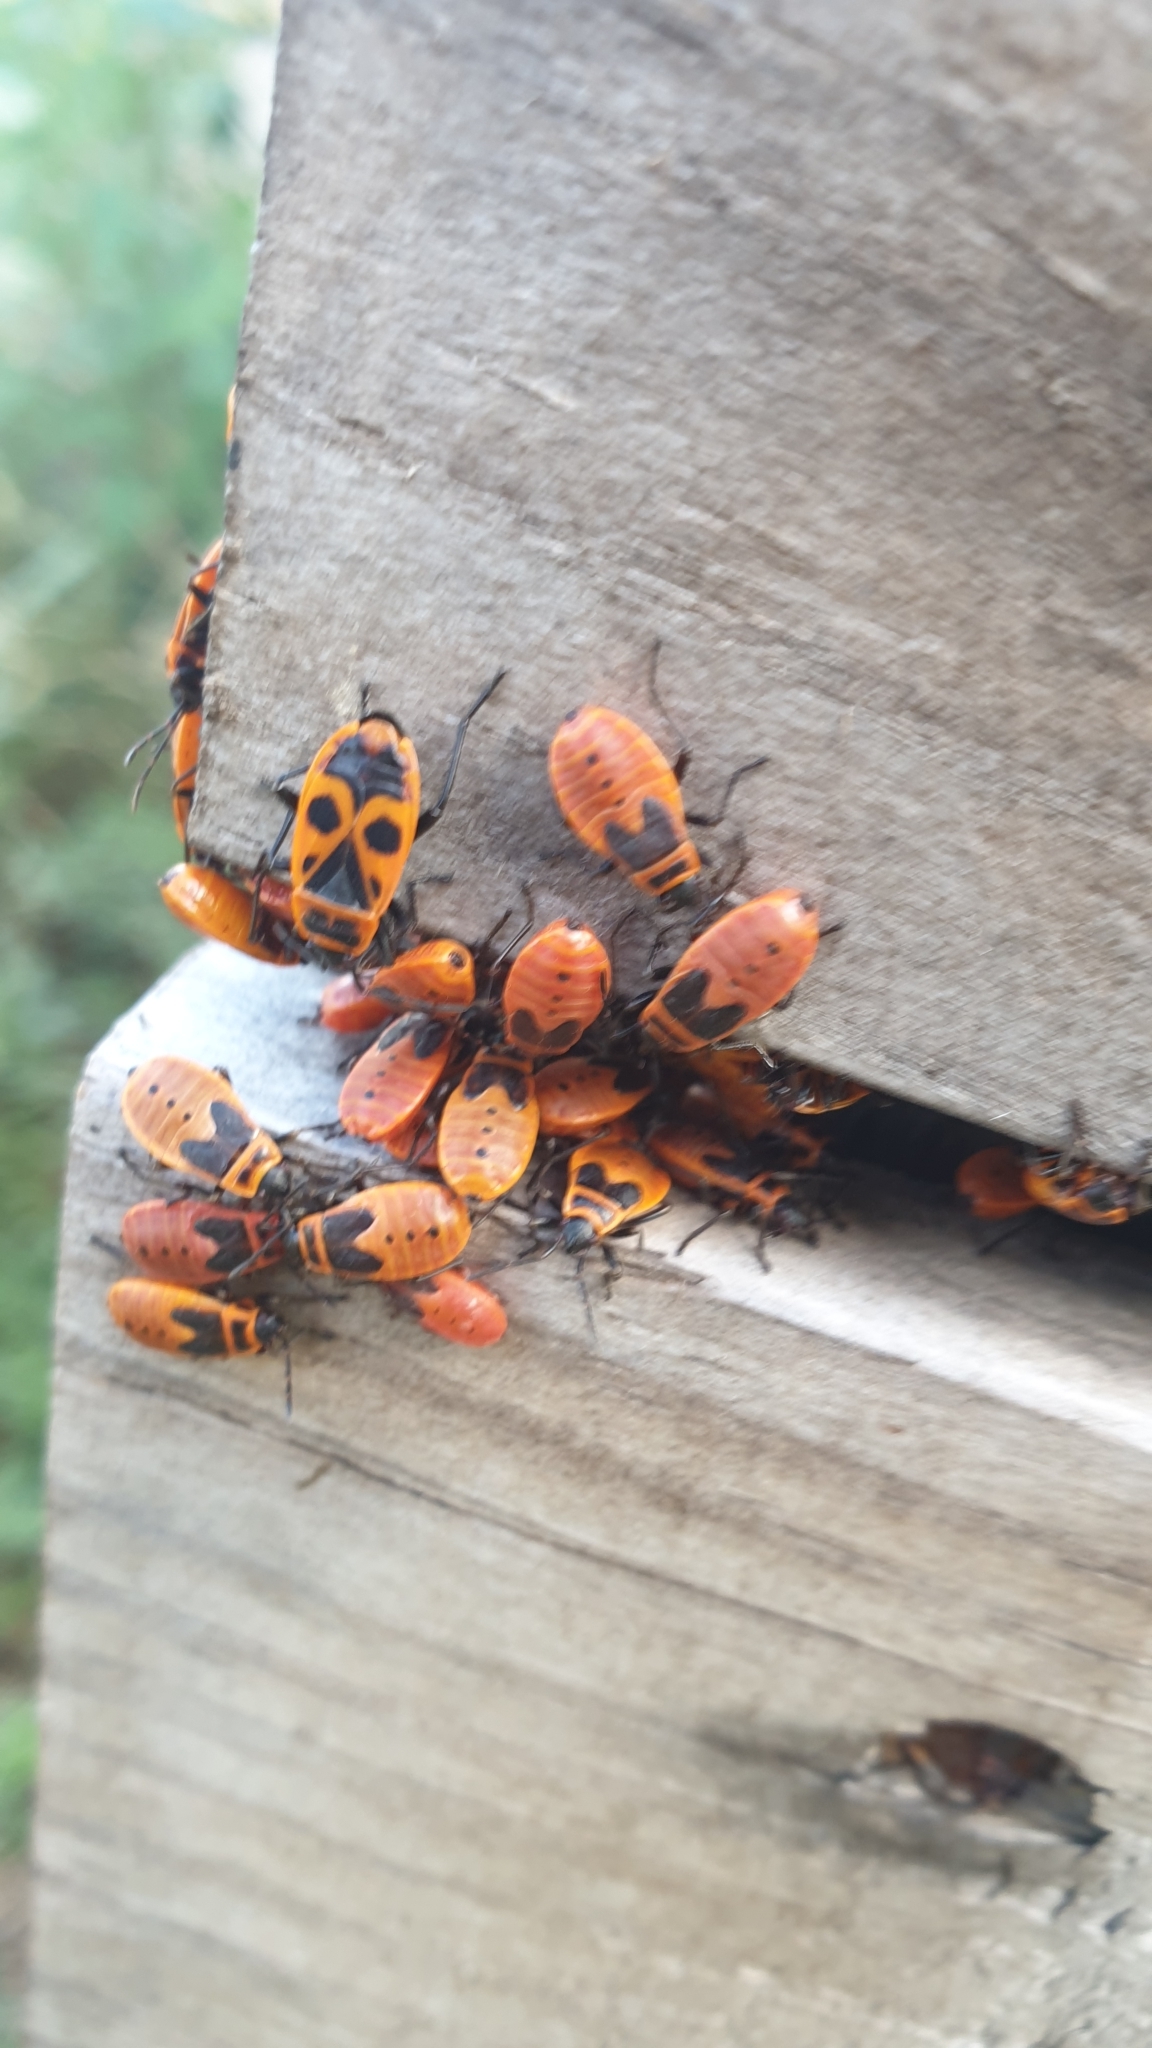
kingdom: Animalia
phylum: Arthropoda
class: Insecta
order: Hemiptera
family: Pyrrhocoridae
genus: Pyrrhocoris
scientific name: Pyrrhocoris apterus
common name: Firebug
